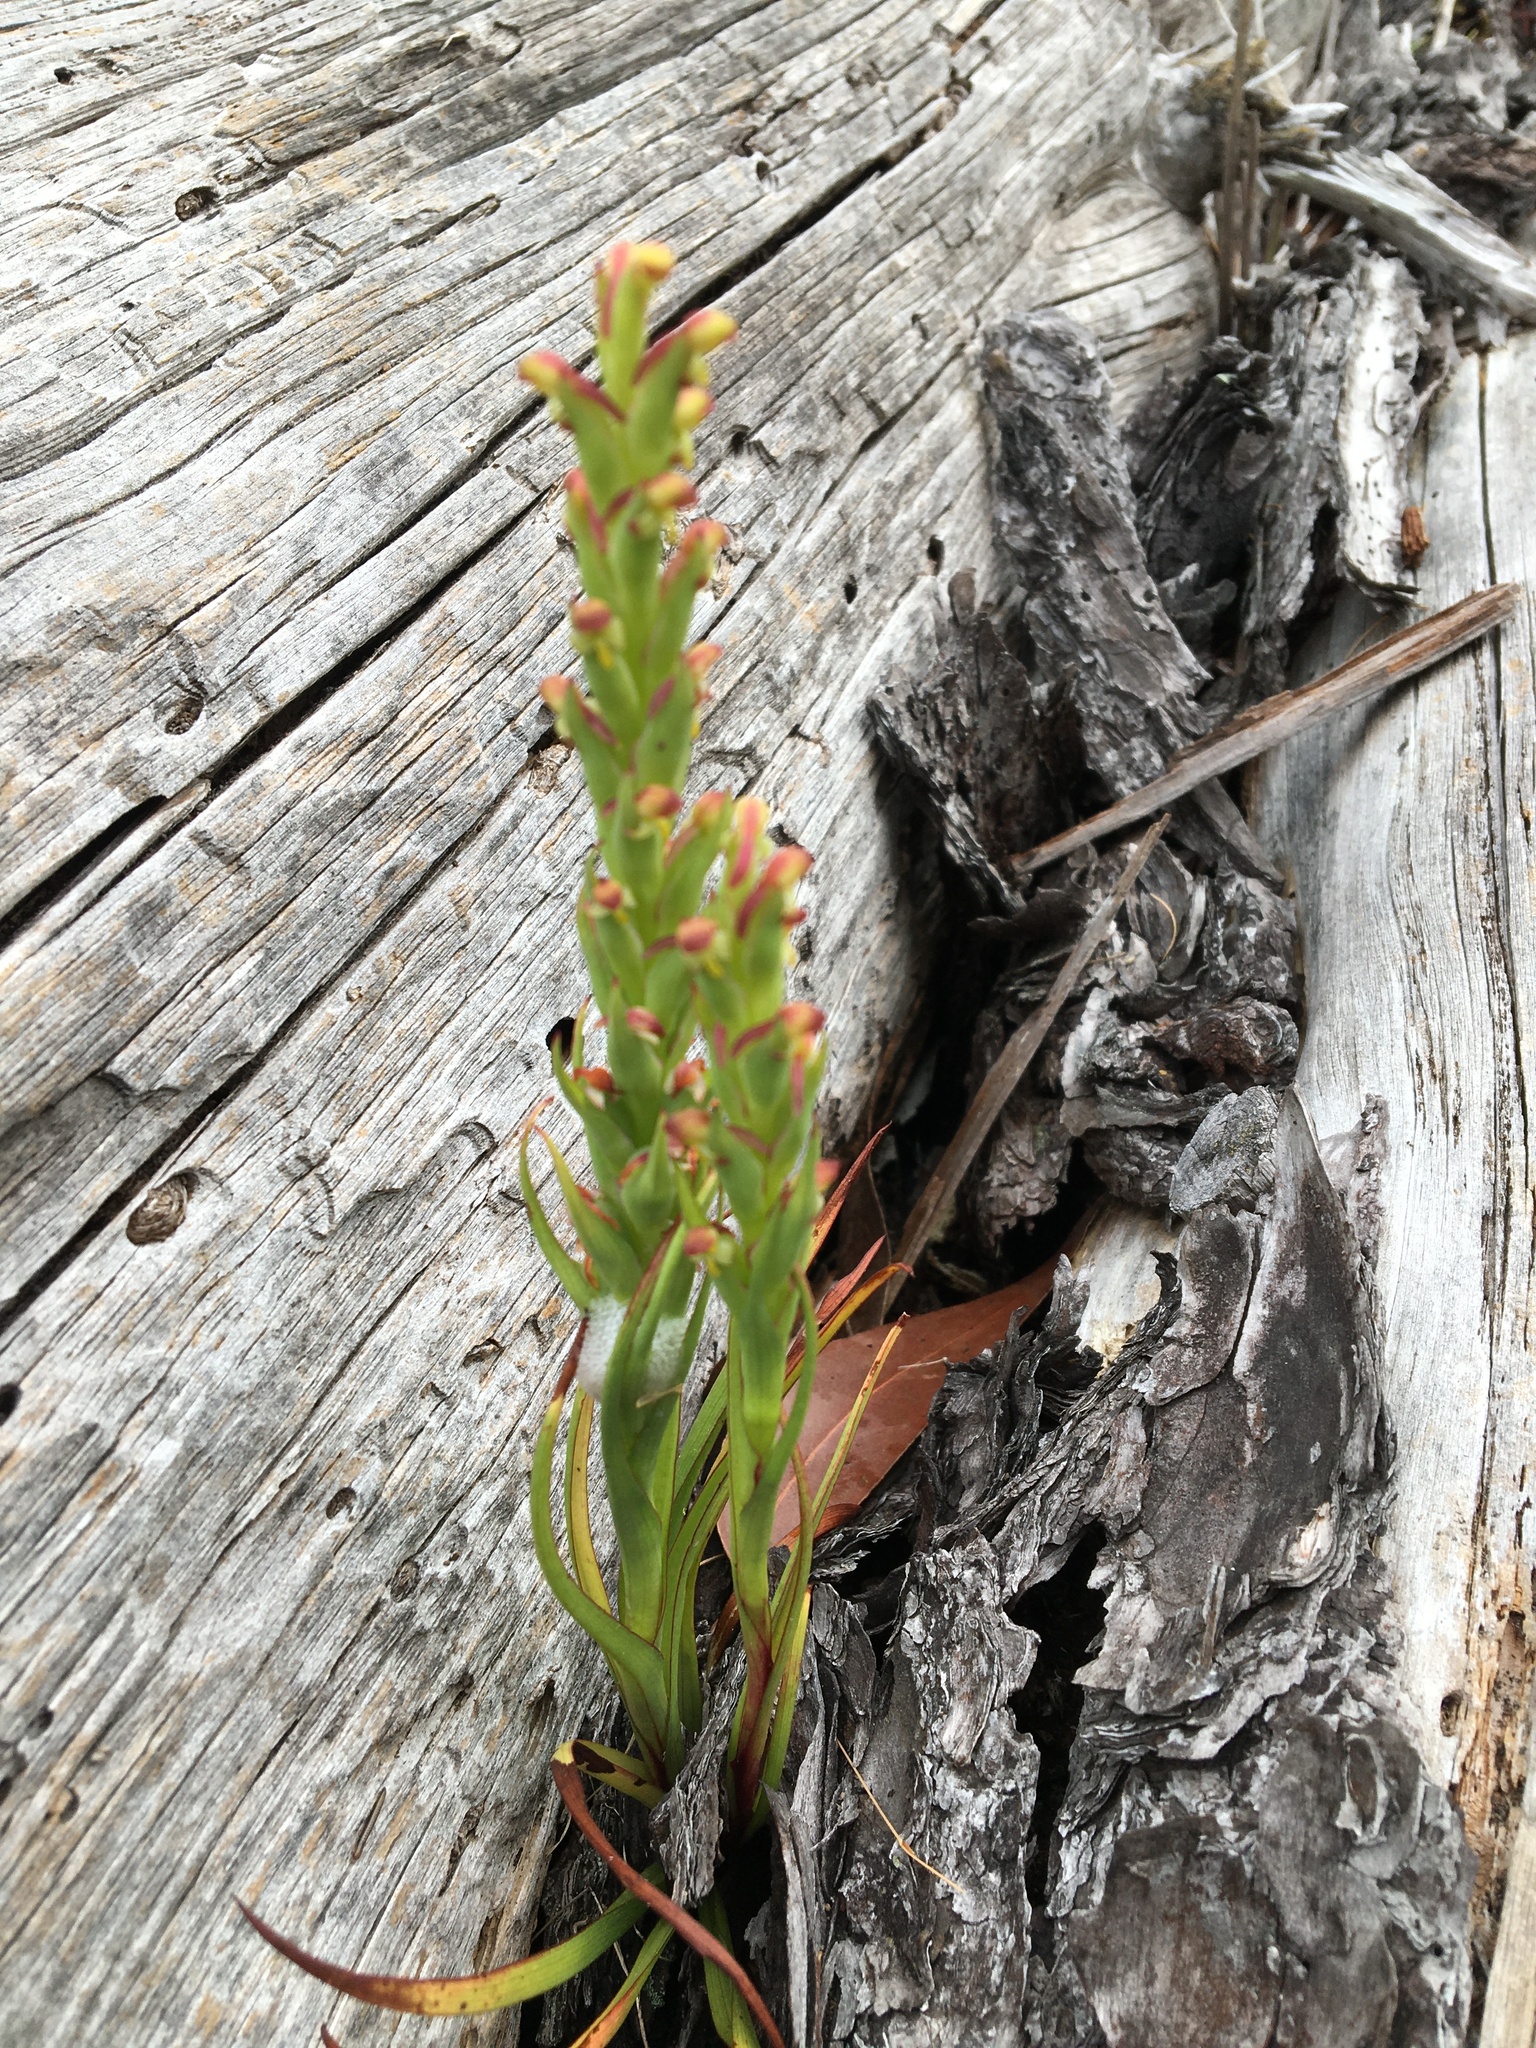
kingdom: Plantae
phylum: Tracheophyta
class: Liliopsida
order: Asparagales
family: Orchidaceae
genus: Disa
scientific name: Disa bracteata
